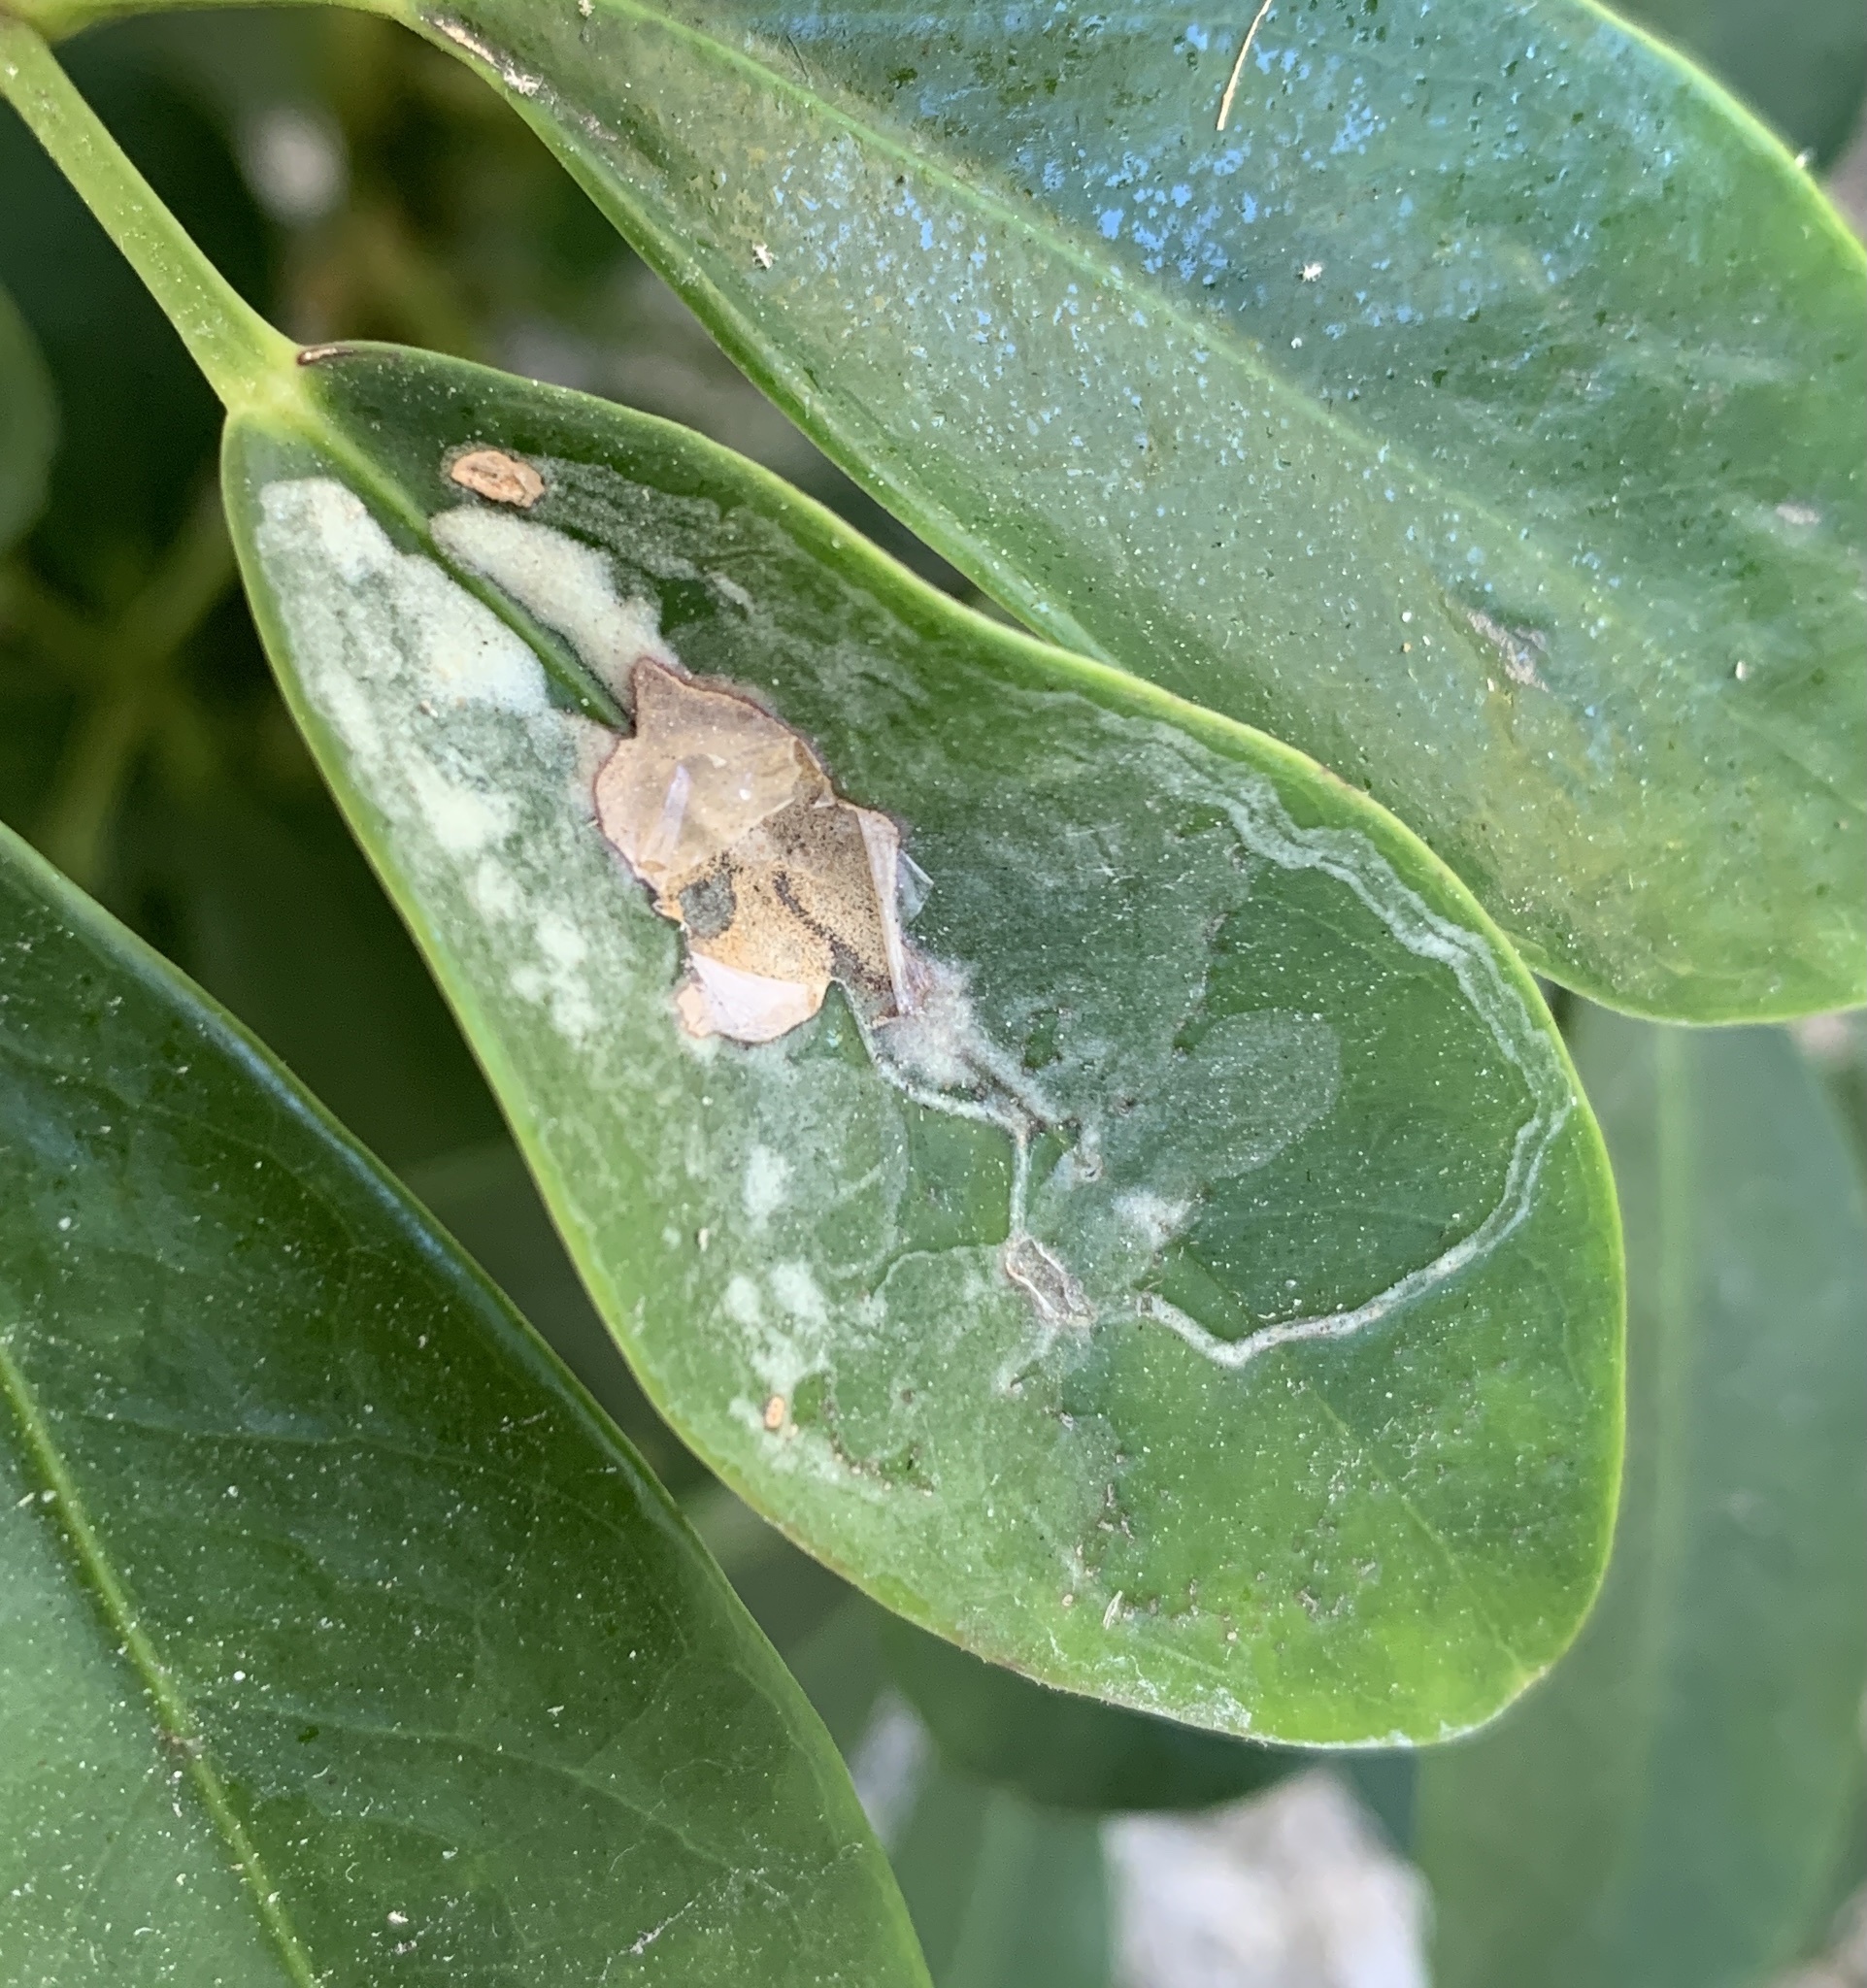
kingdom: Animalia
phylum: Arthropoda
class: Insecta
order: Diptera
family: Agromyzidae
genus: Liriomyza
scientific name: Liriomyza schmidti
